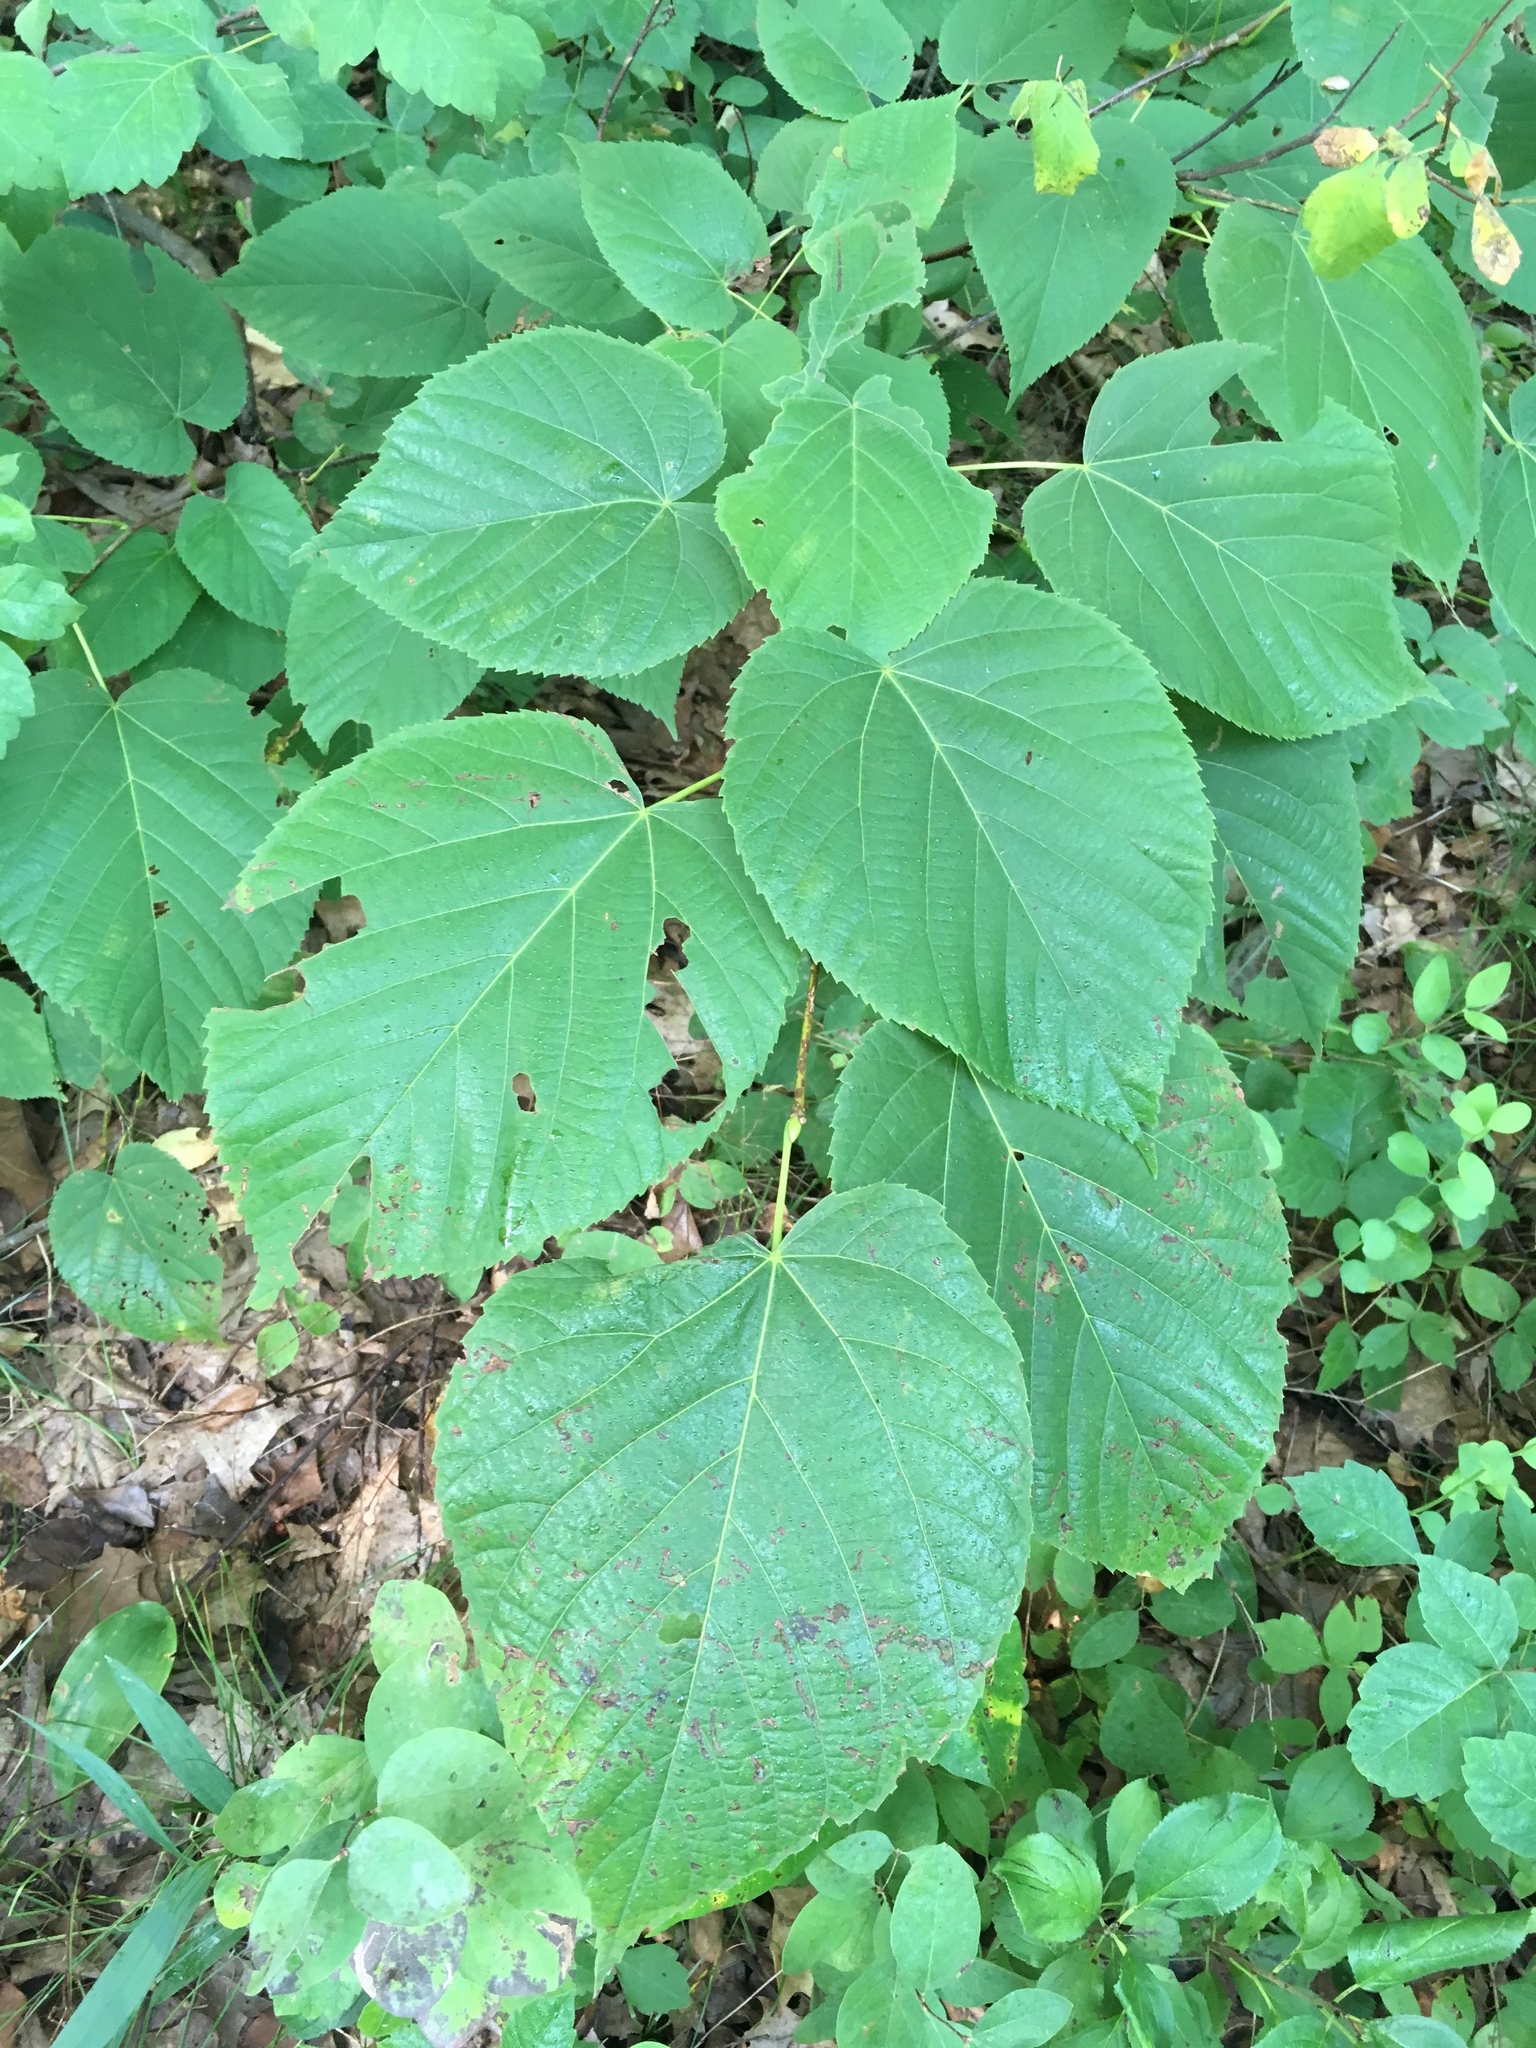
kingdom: Plantae
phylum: Tracheophyta
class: Magnoliopsida
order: Malvales
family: Malvaceae
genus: Tilia
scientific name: Tilia americana
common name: Basswood
